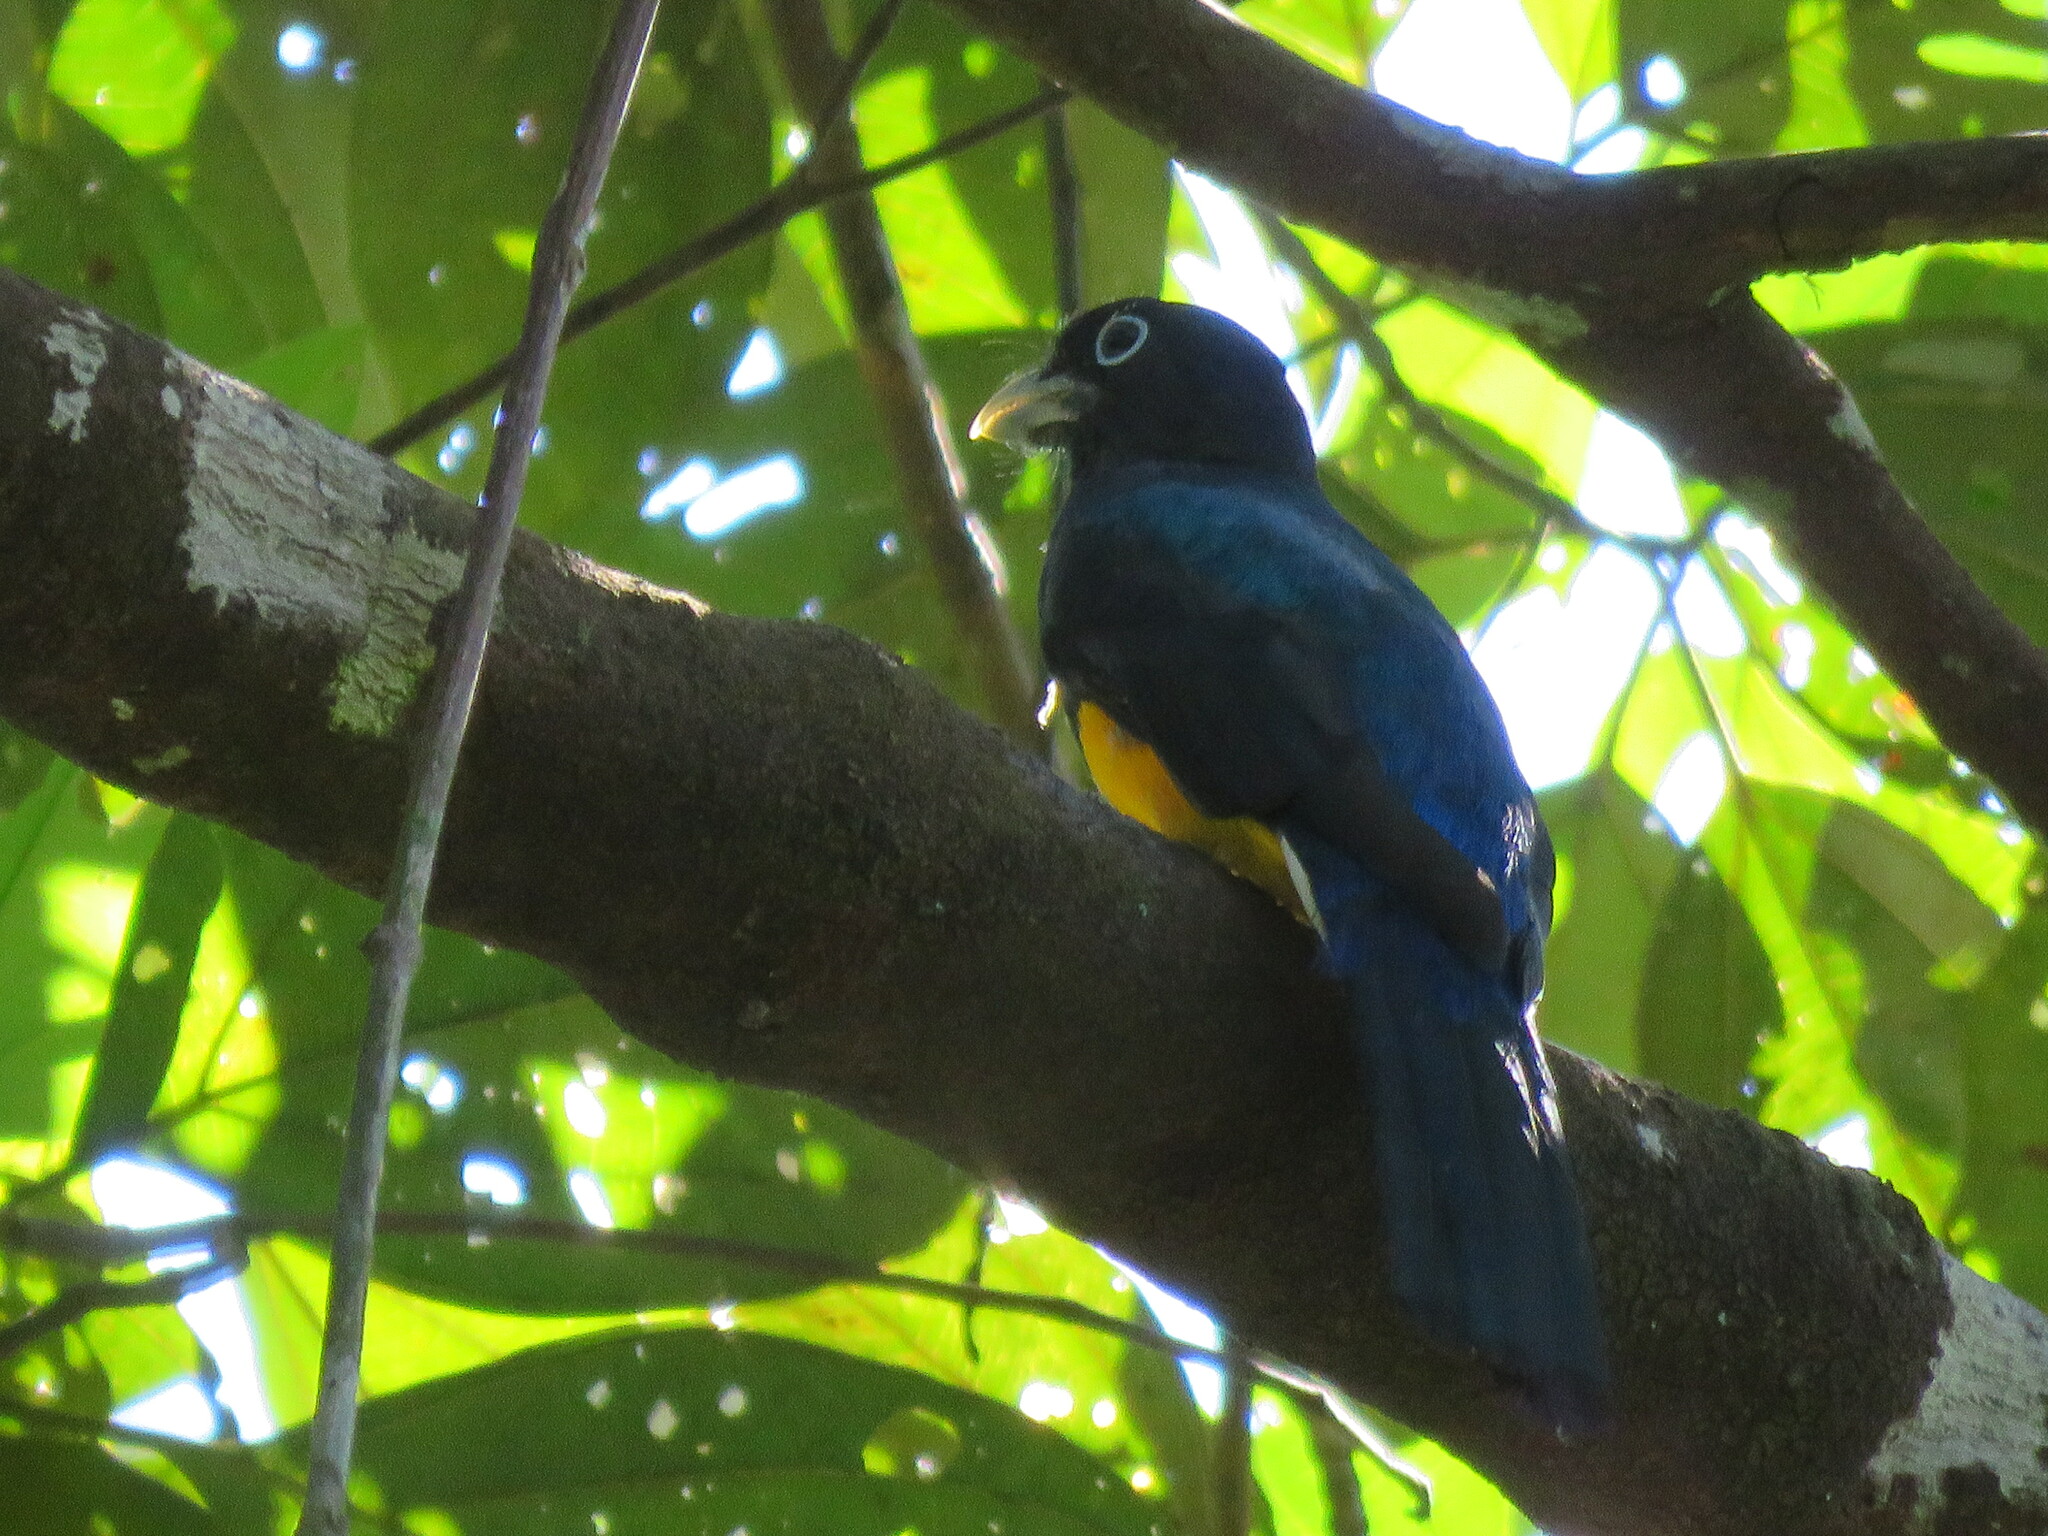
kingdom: Animalia
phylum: Chordata
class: Aves
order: Trogoniformes
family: Trogonidae
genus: Trogon
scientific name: Trogon viridis
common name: Green-backed trogon
